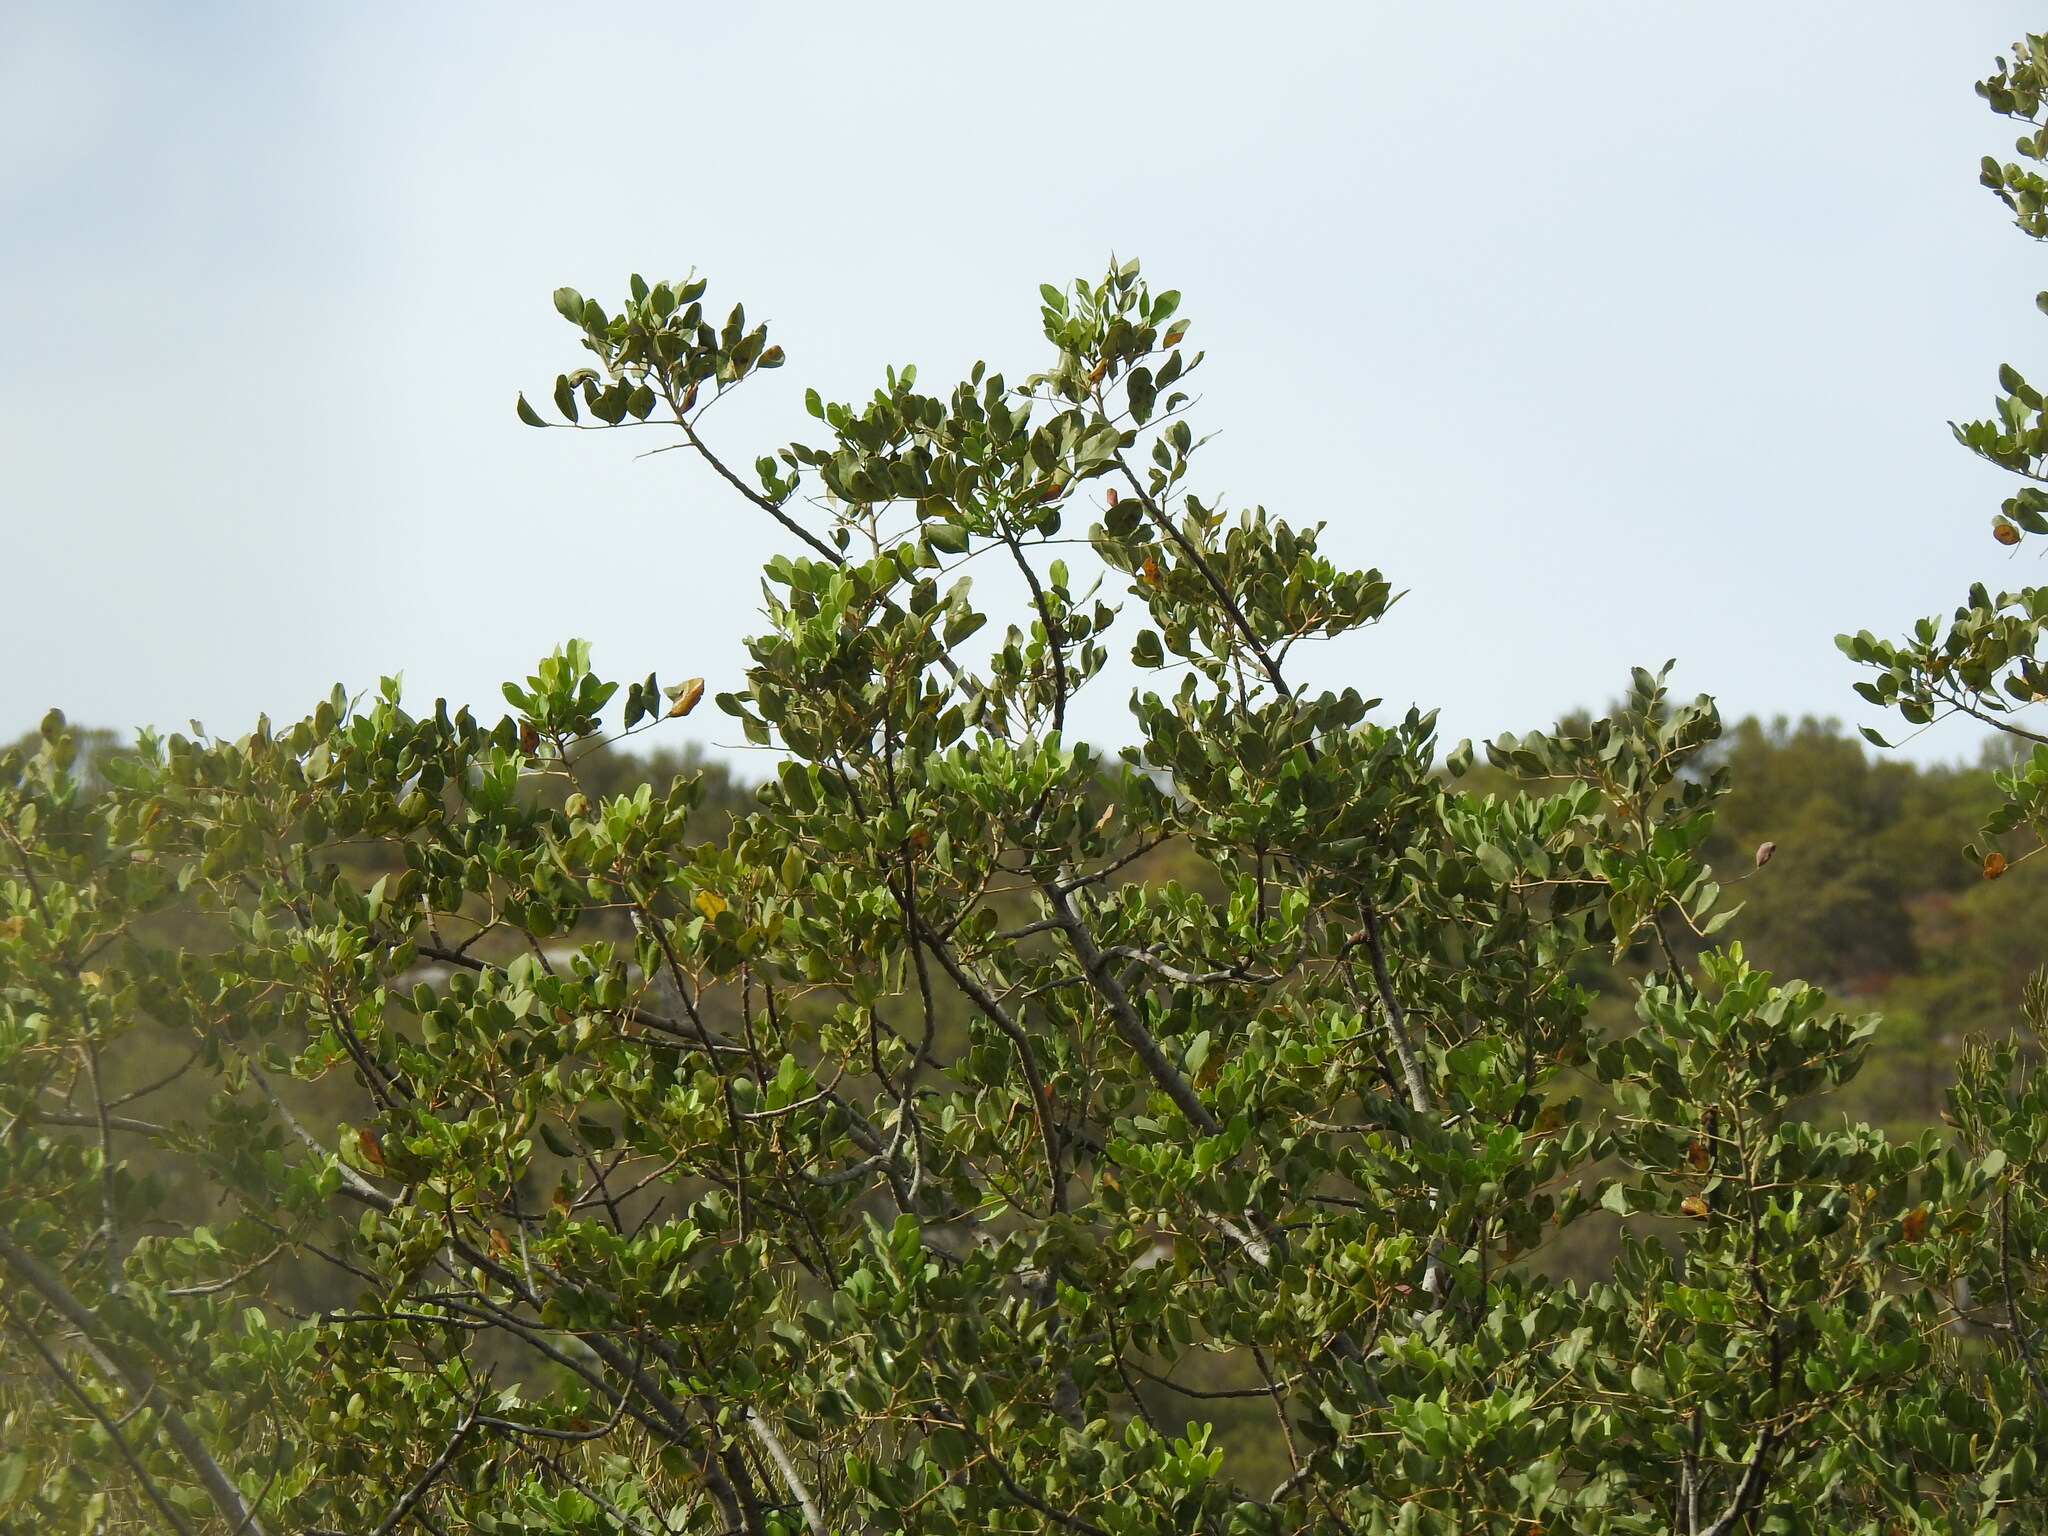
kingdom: Plantae
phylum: Tracheophyta
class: Magnoliopsida
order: Fabales
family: Fabaceae
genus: Ceratonia
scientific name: Ceratonia siliqua
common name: Carob
